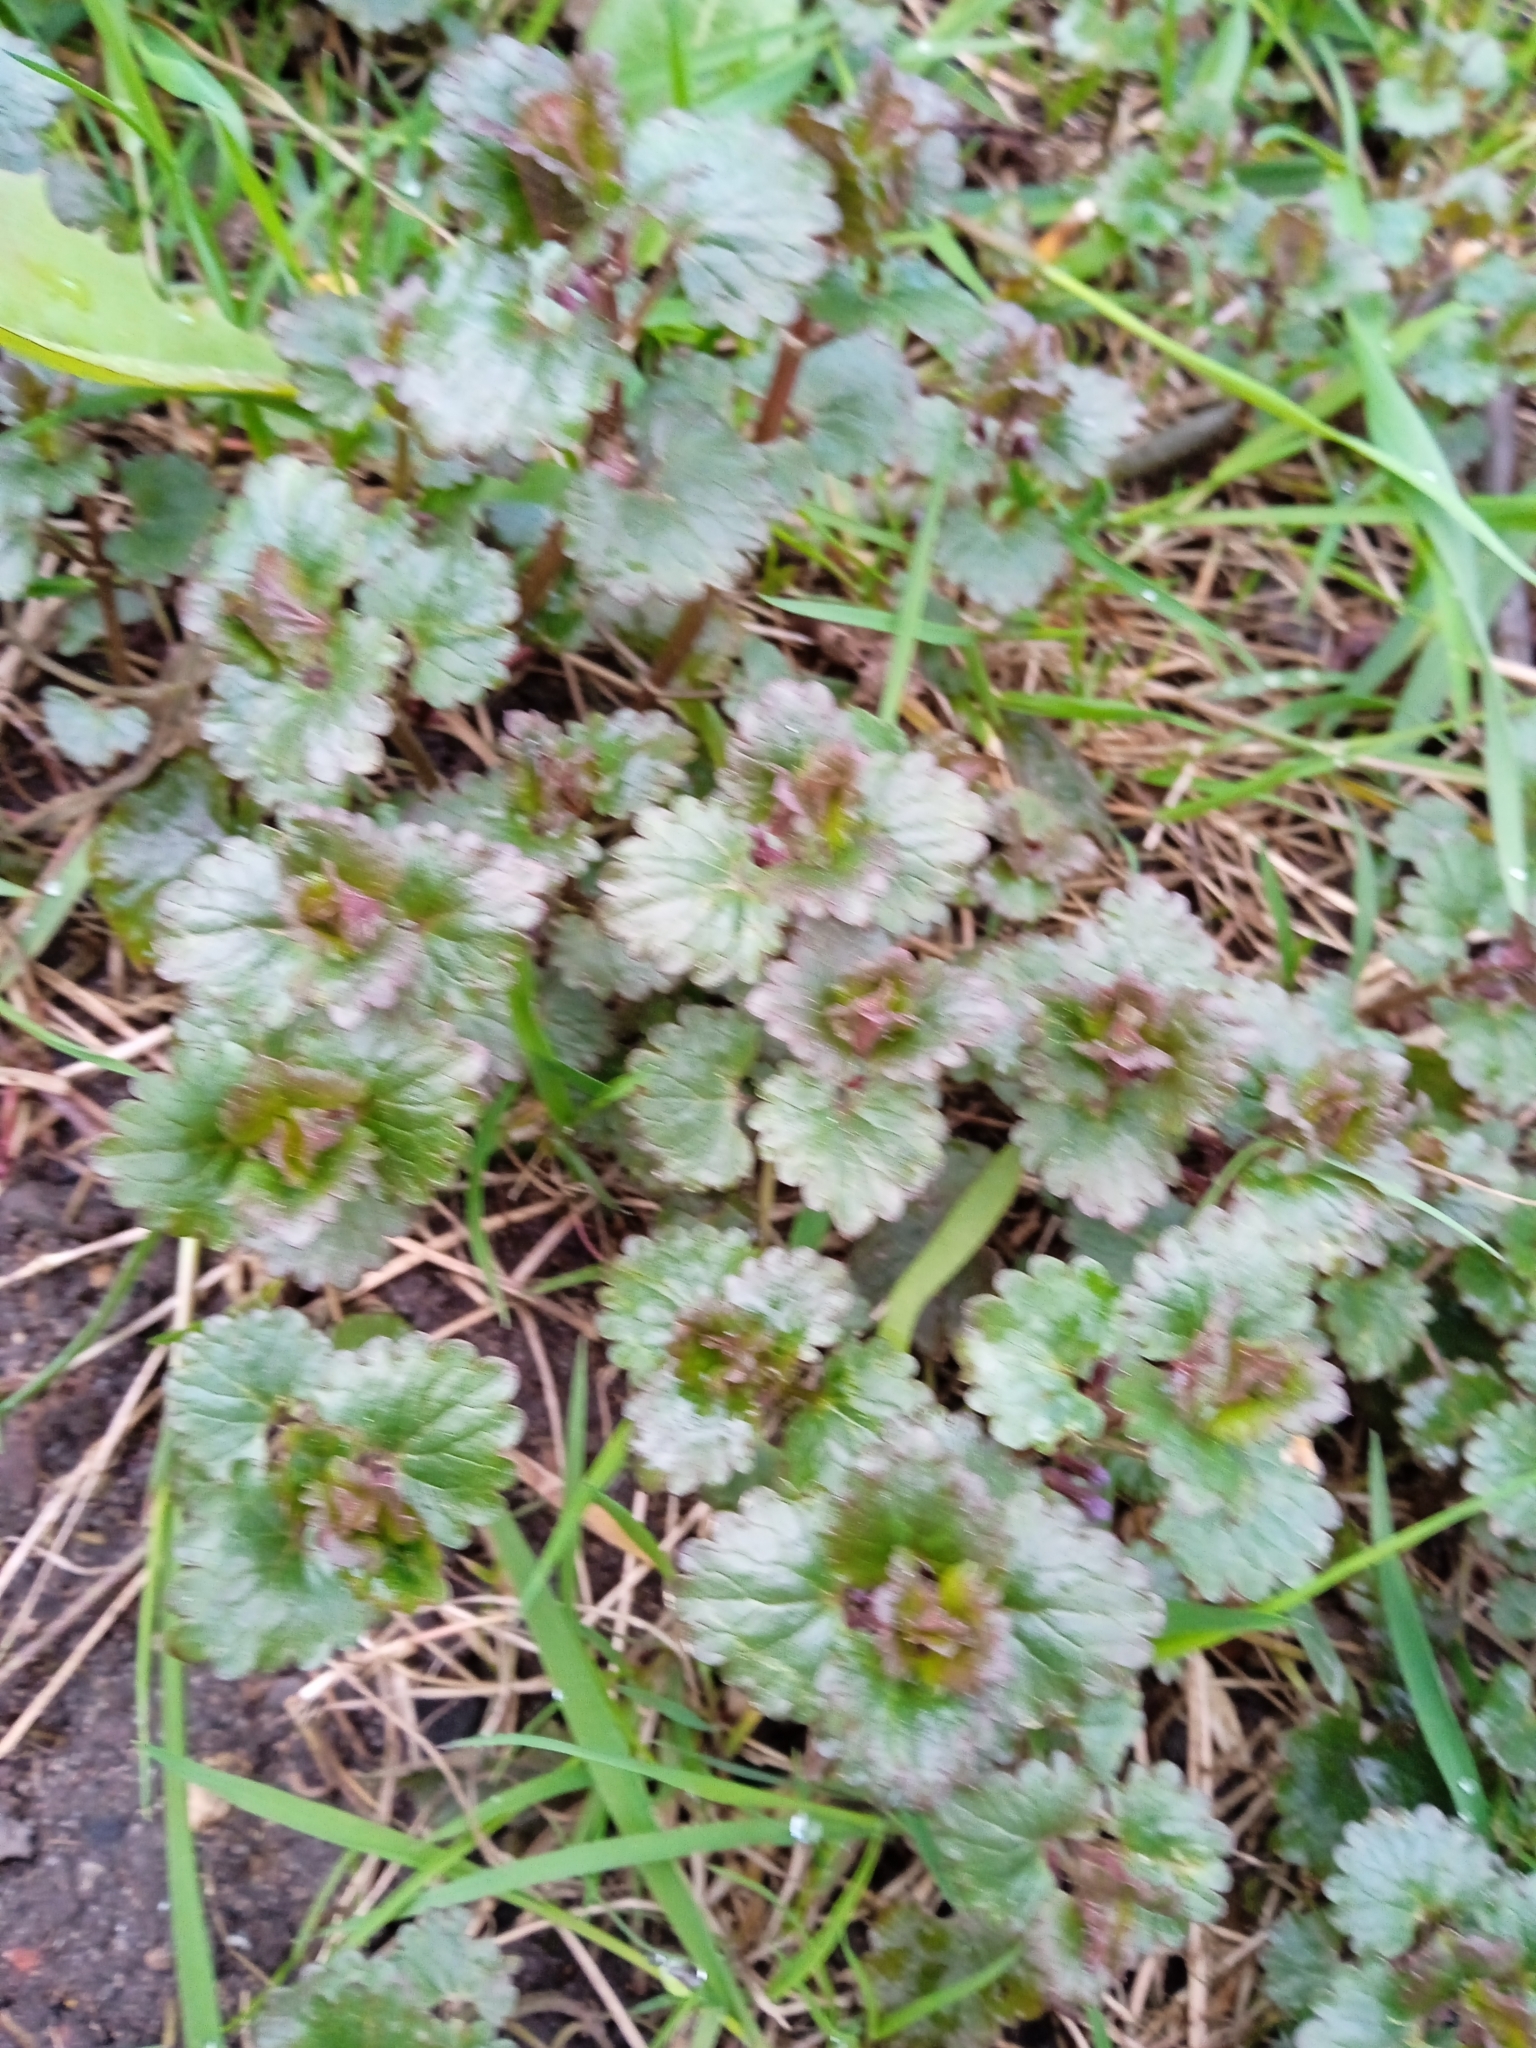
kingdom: Plantae
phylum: Tracheophyta
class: Magnoliopsida
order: Lamiales
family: Lamiaceae
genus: Glechoma
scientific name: Glechoma hederacea
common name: Ground ivy
